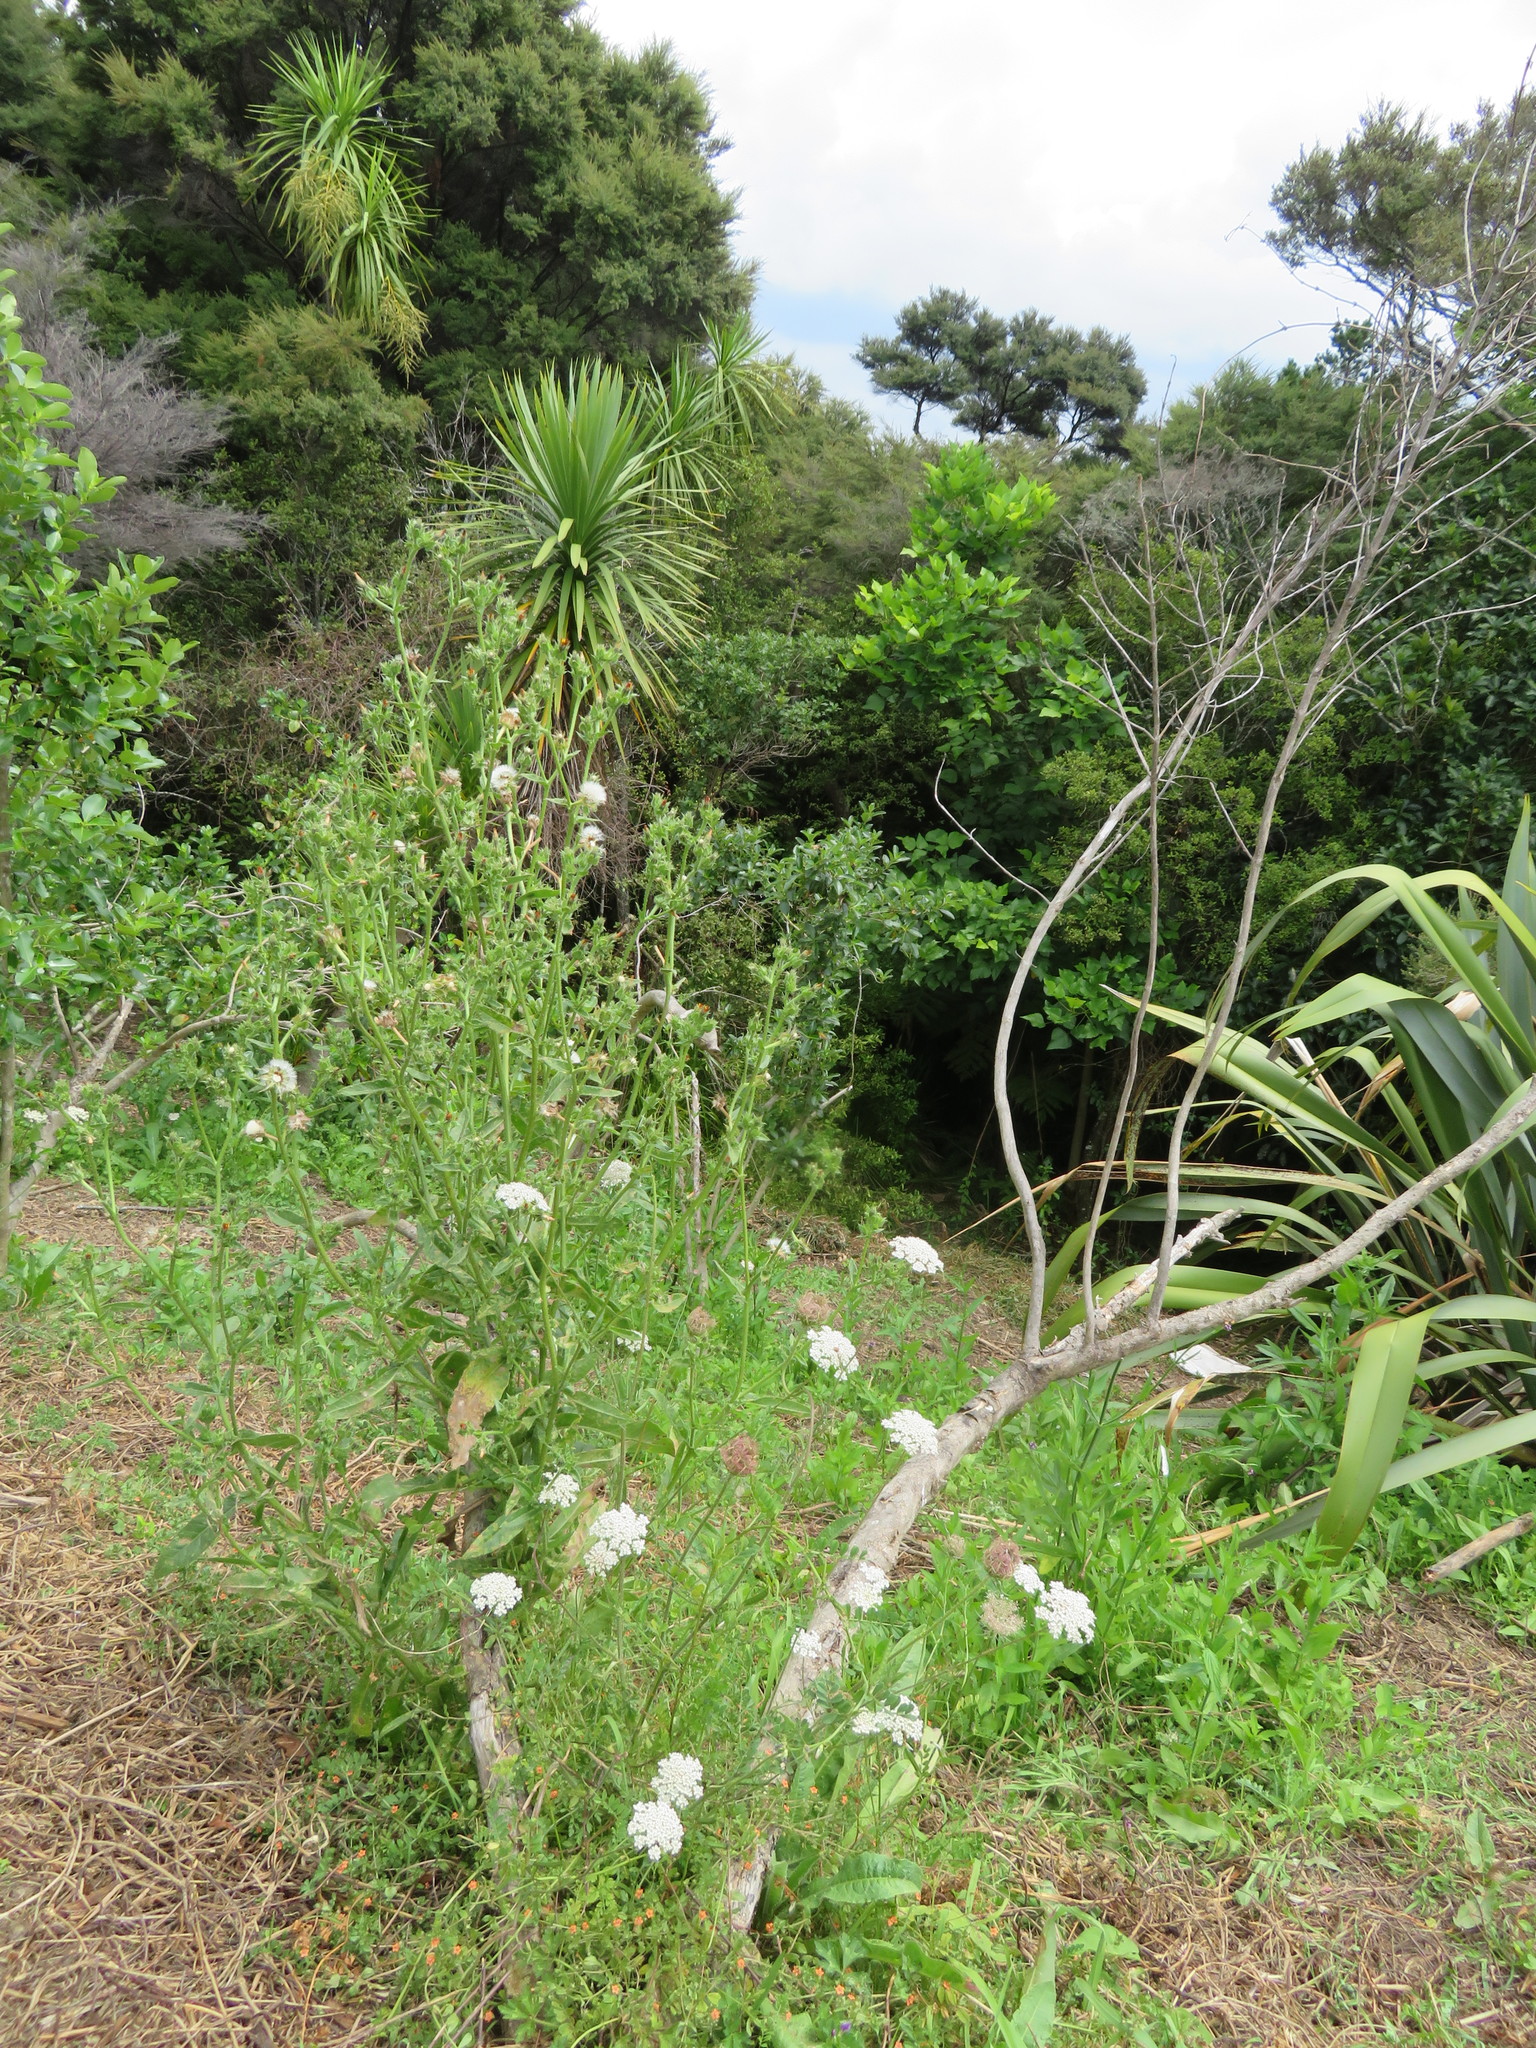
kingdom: Plantae
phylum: Tracheophyta
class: Magnoliopsida
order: Asterales
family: Asteraceae
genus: Helminthotheca
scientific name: Helminthotheca echioides
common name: Ox-tongue
